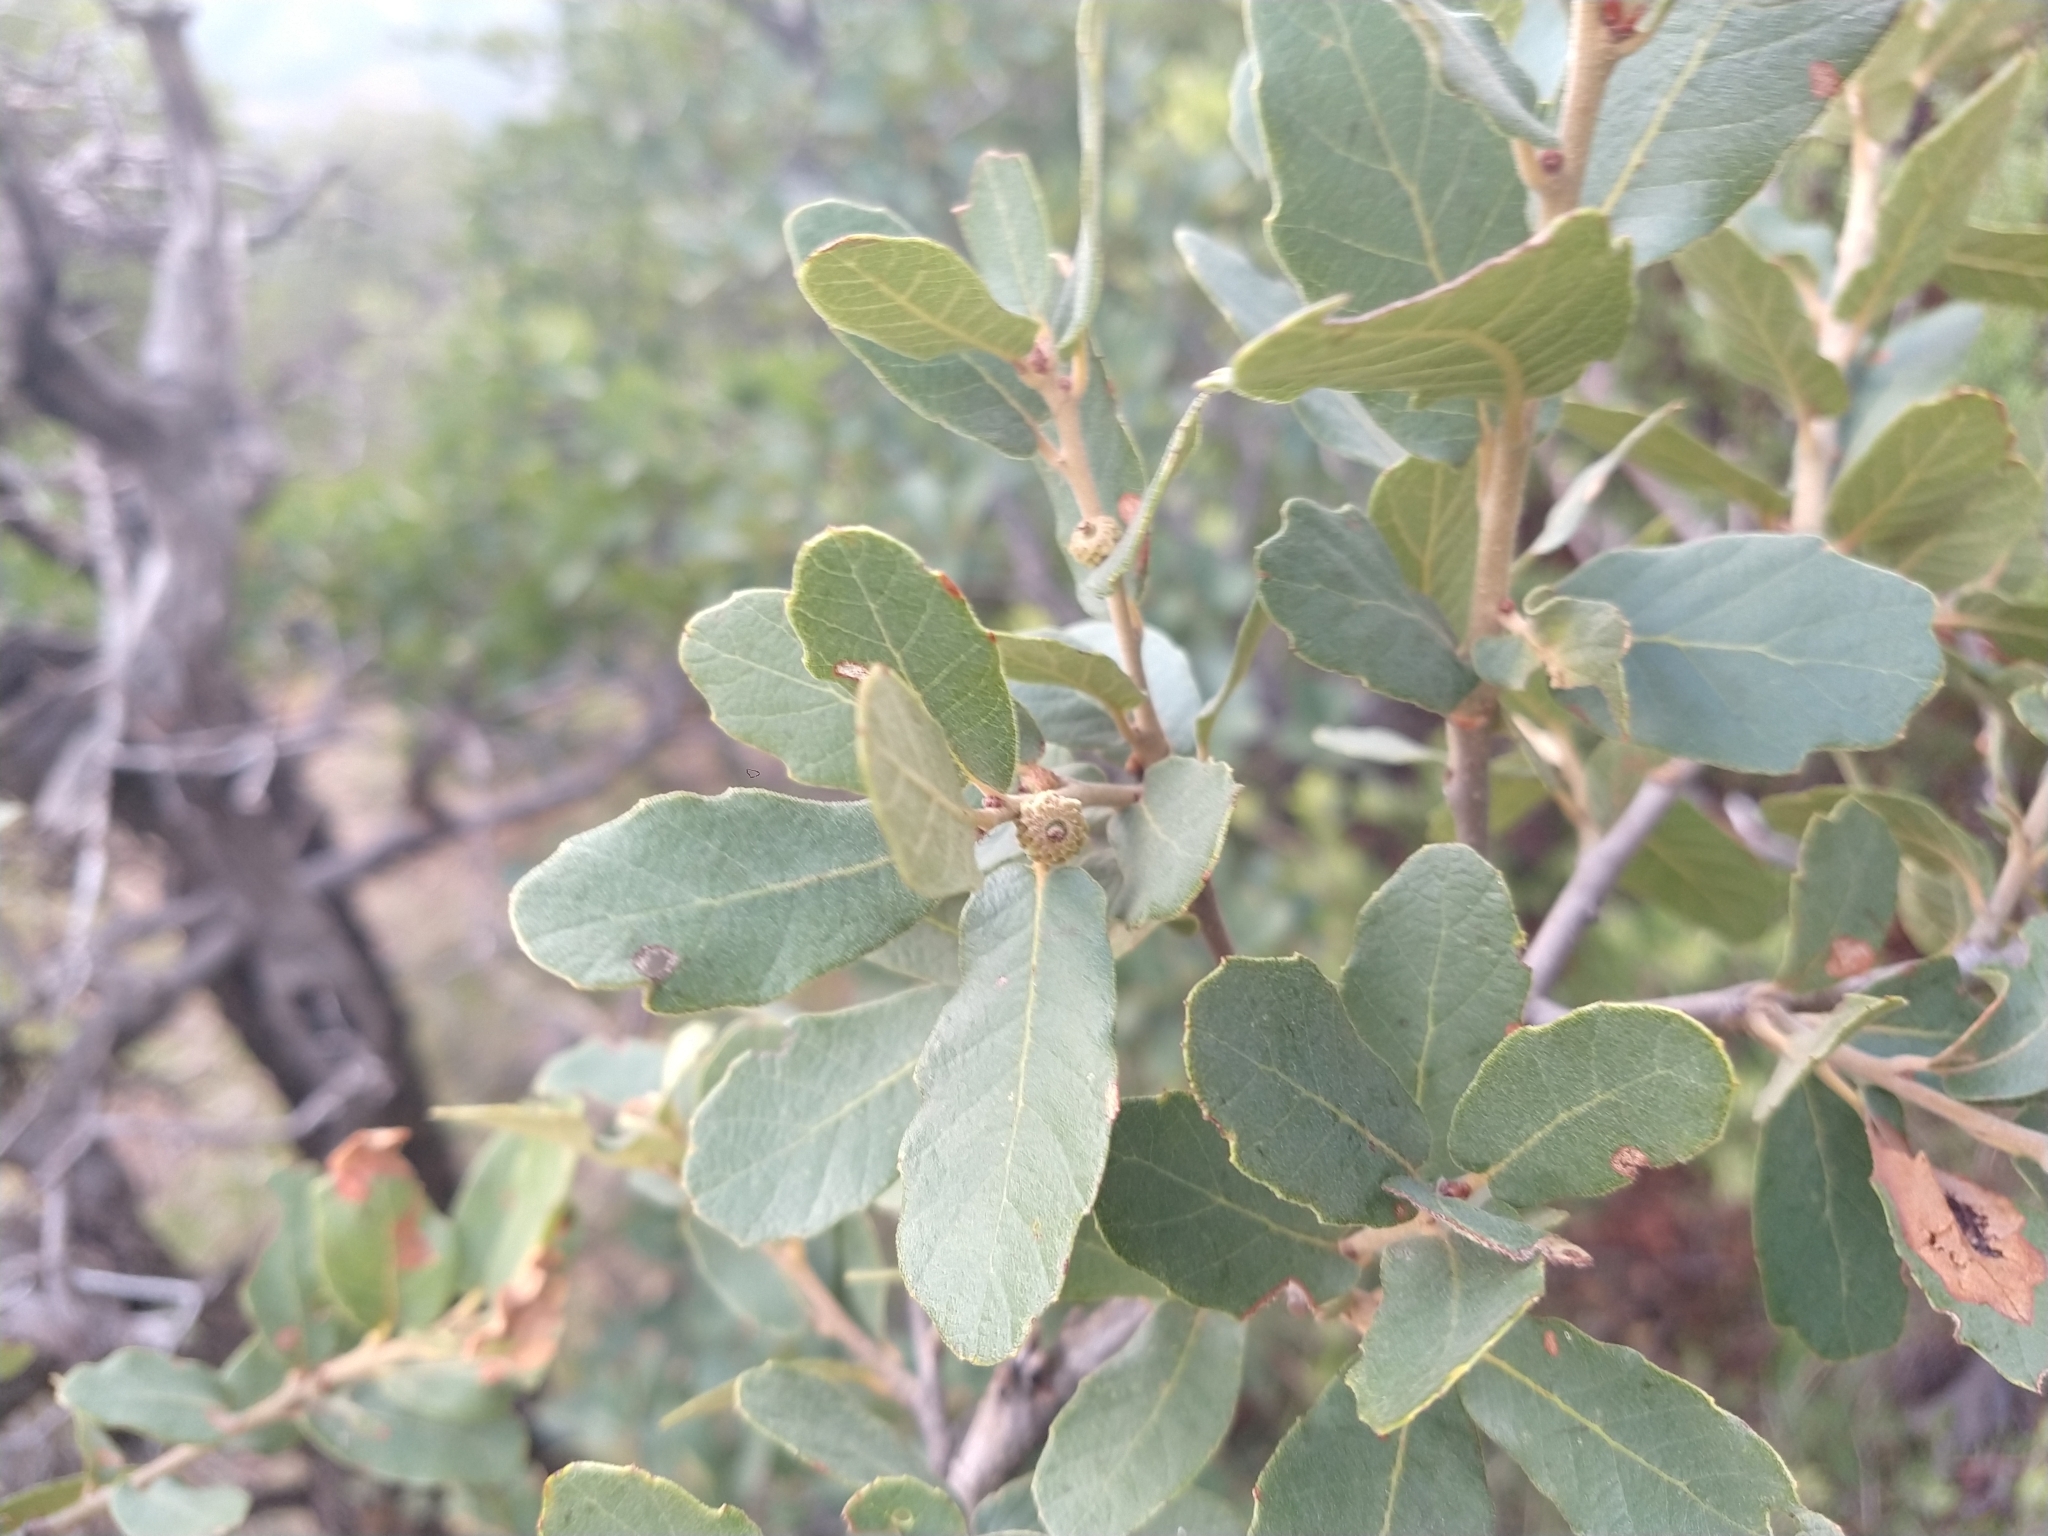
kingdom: Plantae
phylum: Tracheophyta
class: Magnoliopsida
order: Fagales
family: Fagaceae
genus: Quercus
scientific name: Quercus arizonica
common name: Arizona white oak
